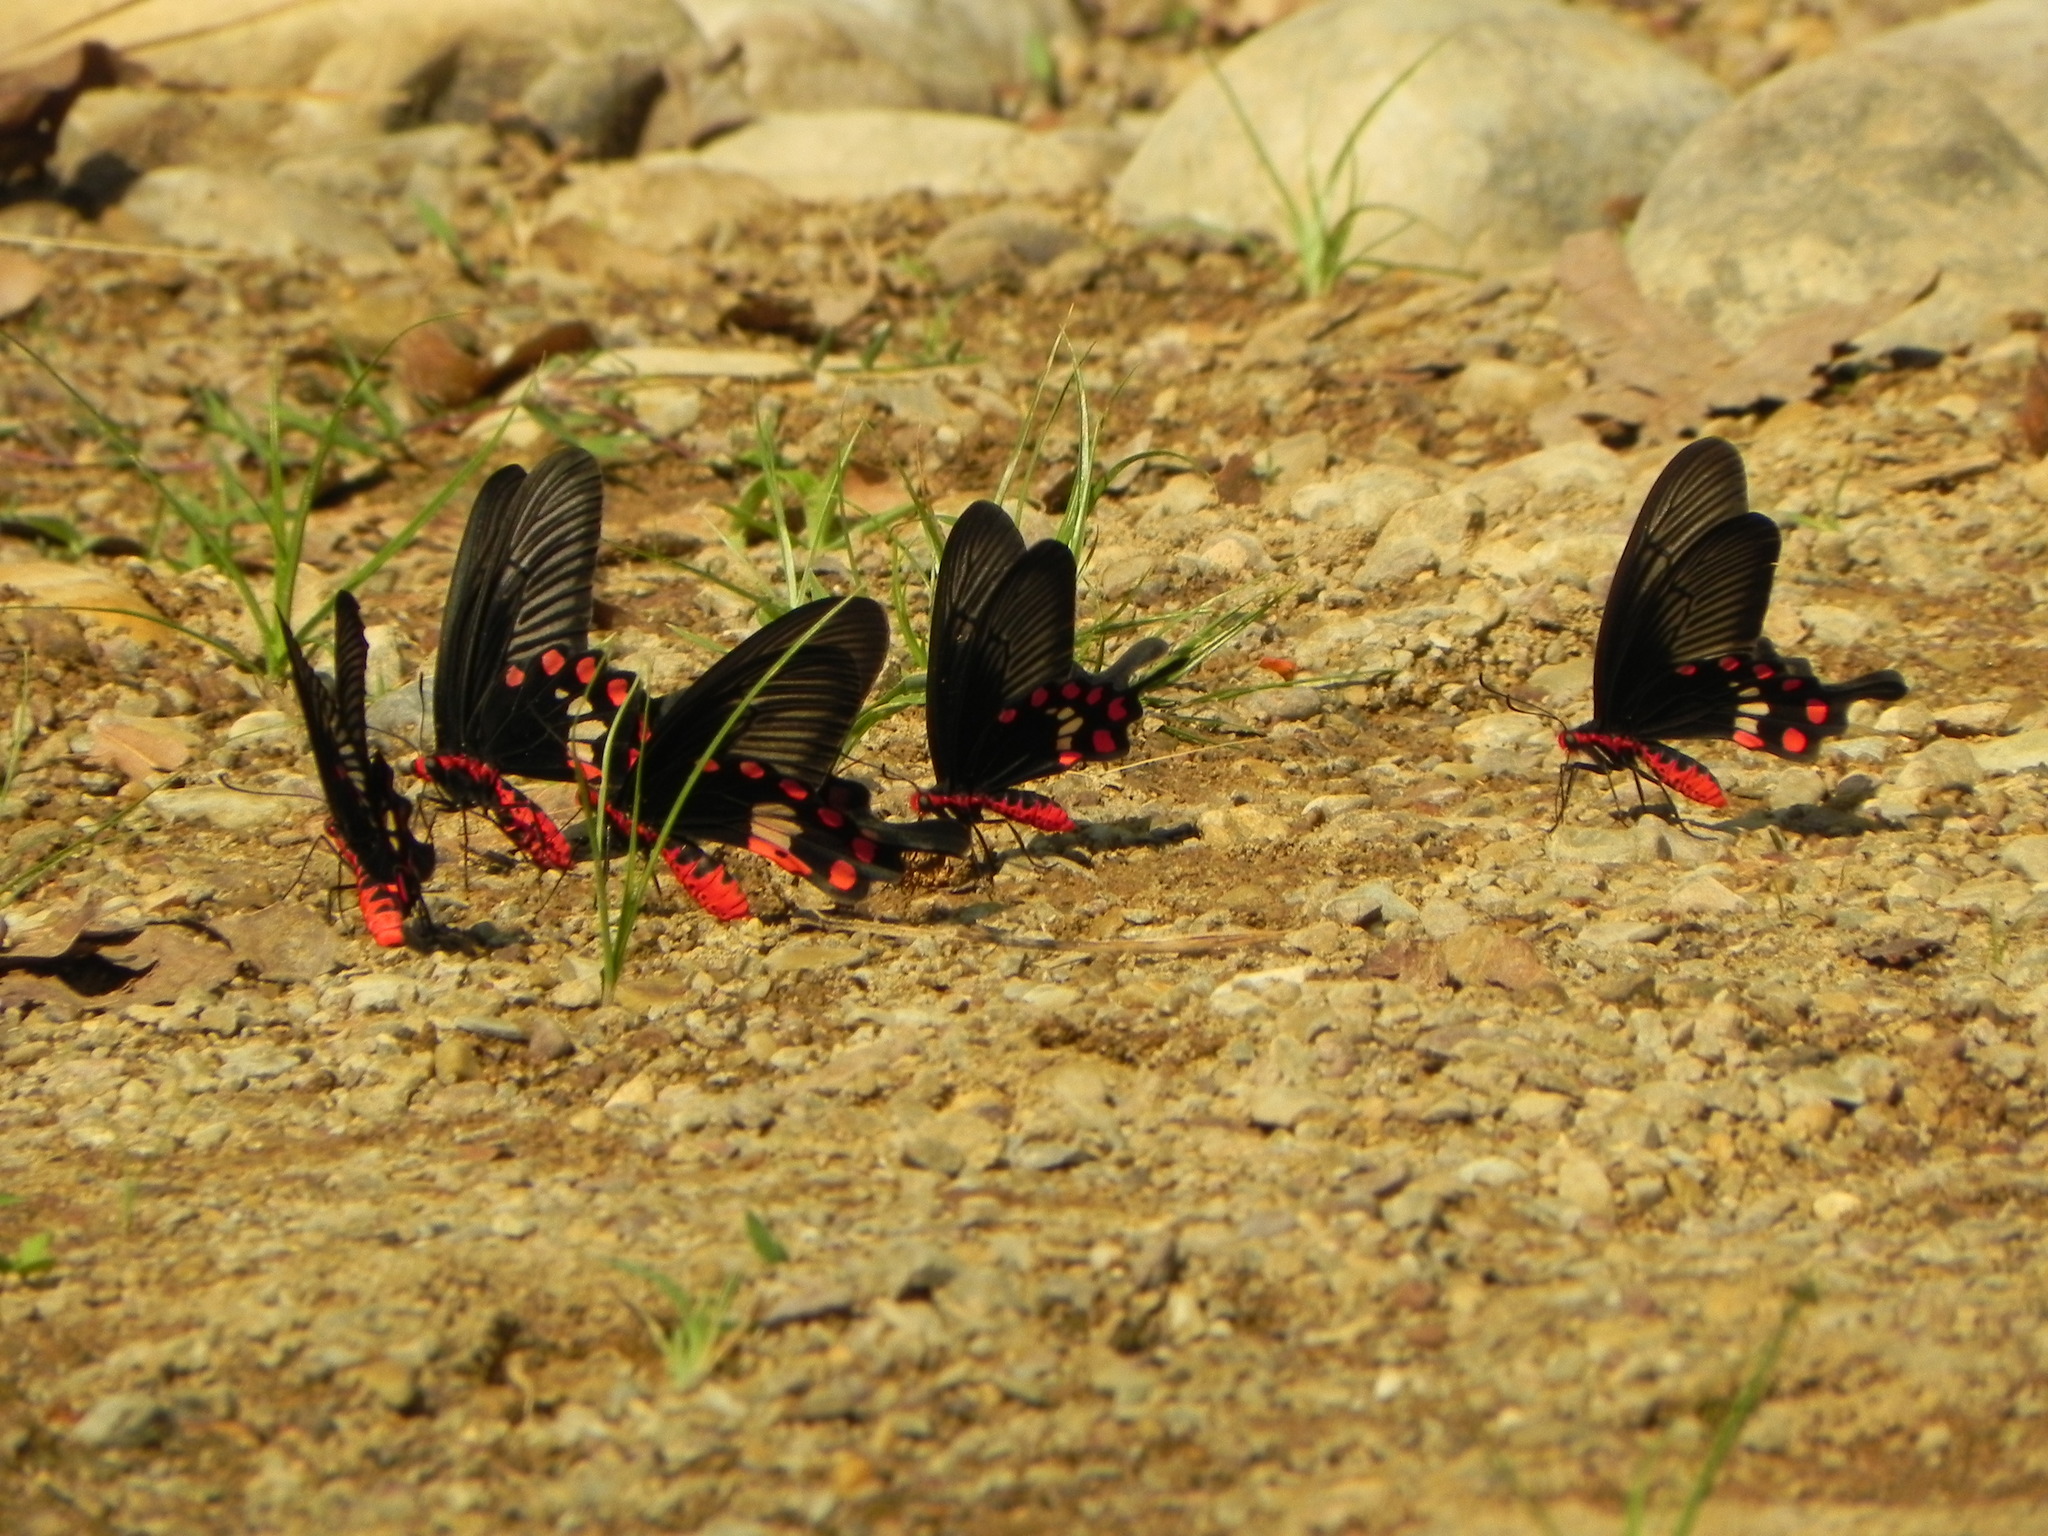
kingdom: Animalia
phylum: Arthropoda
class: Insecta
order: Lepidoptera
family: Papilionidae
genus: Pachliopta
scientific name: Pachliopta aristolochiae
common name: Common rose
